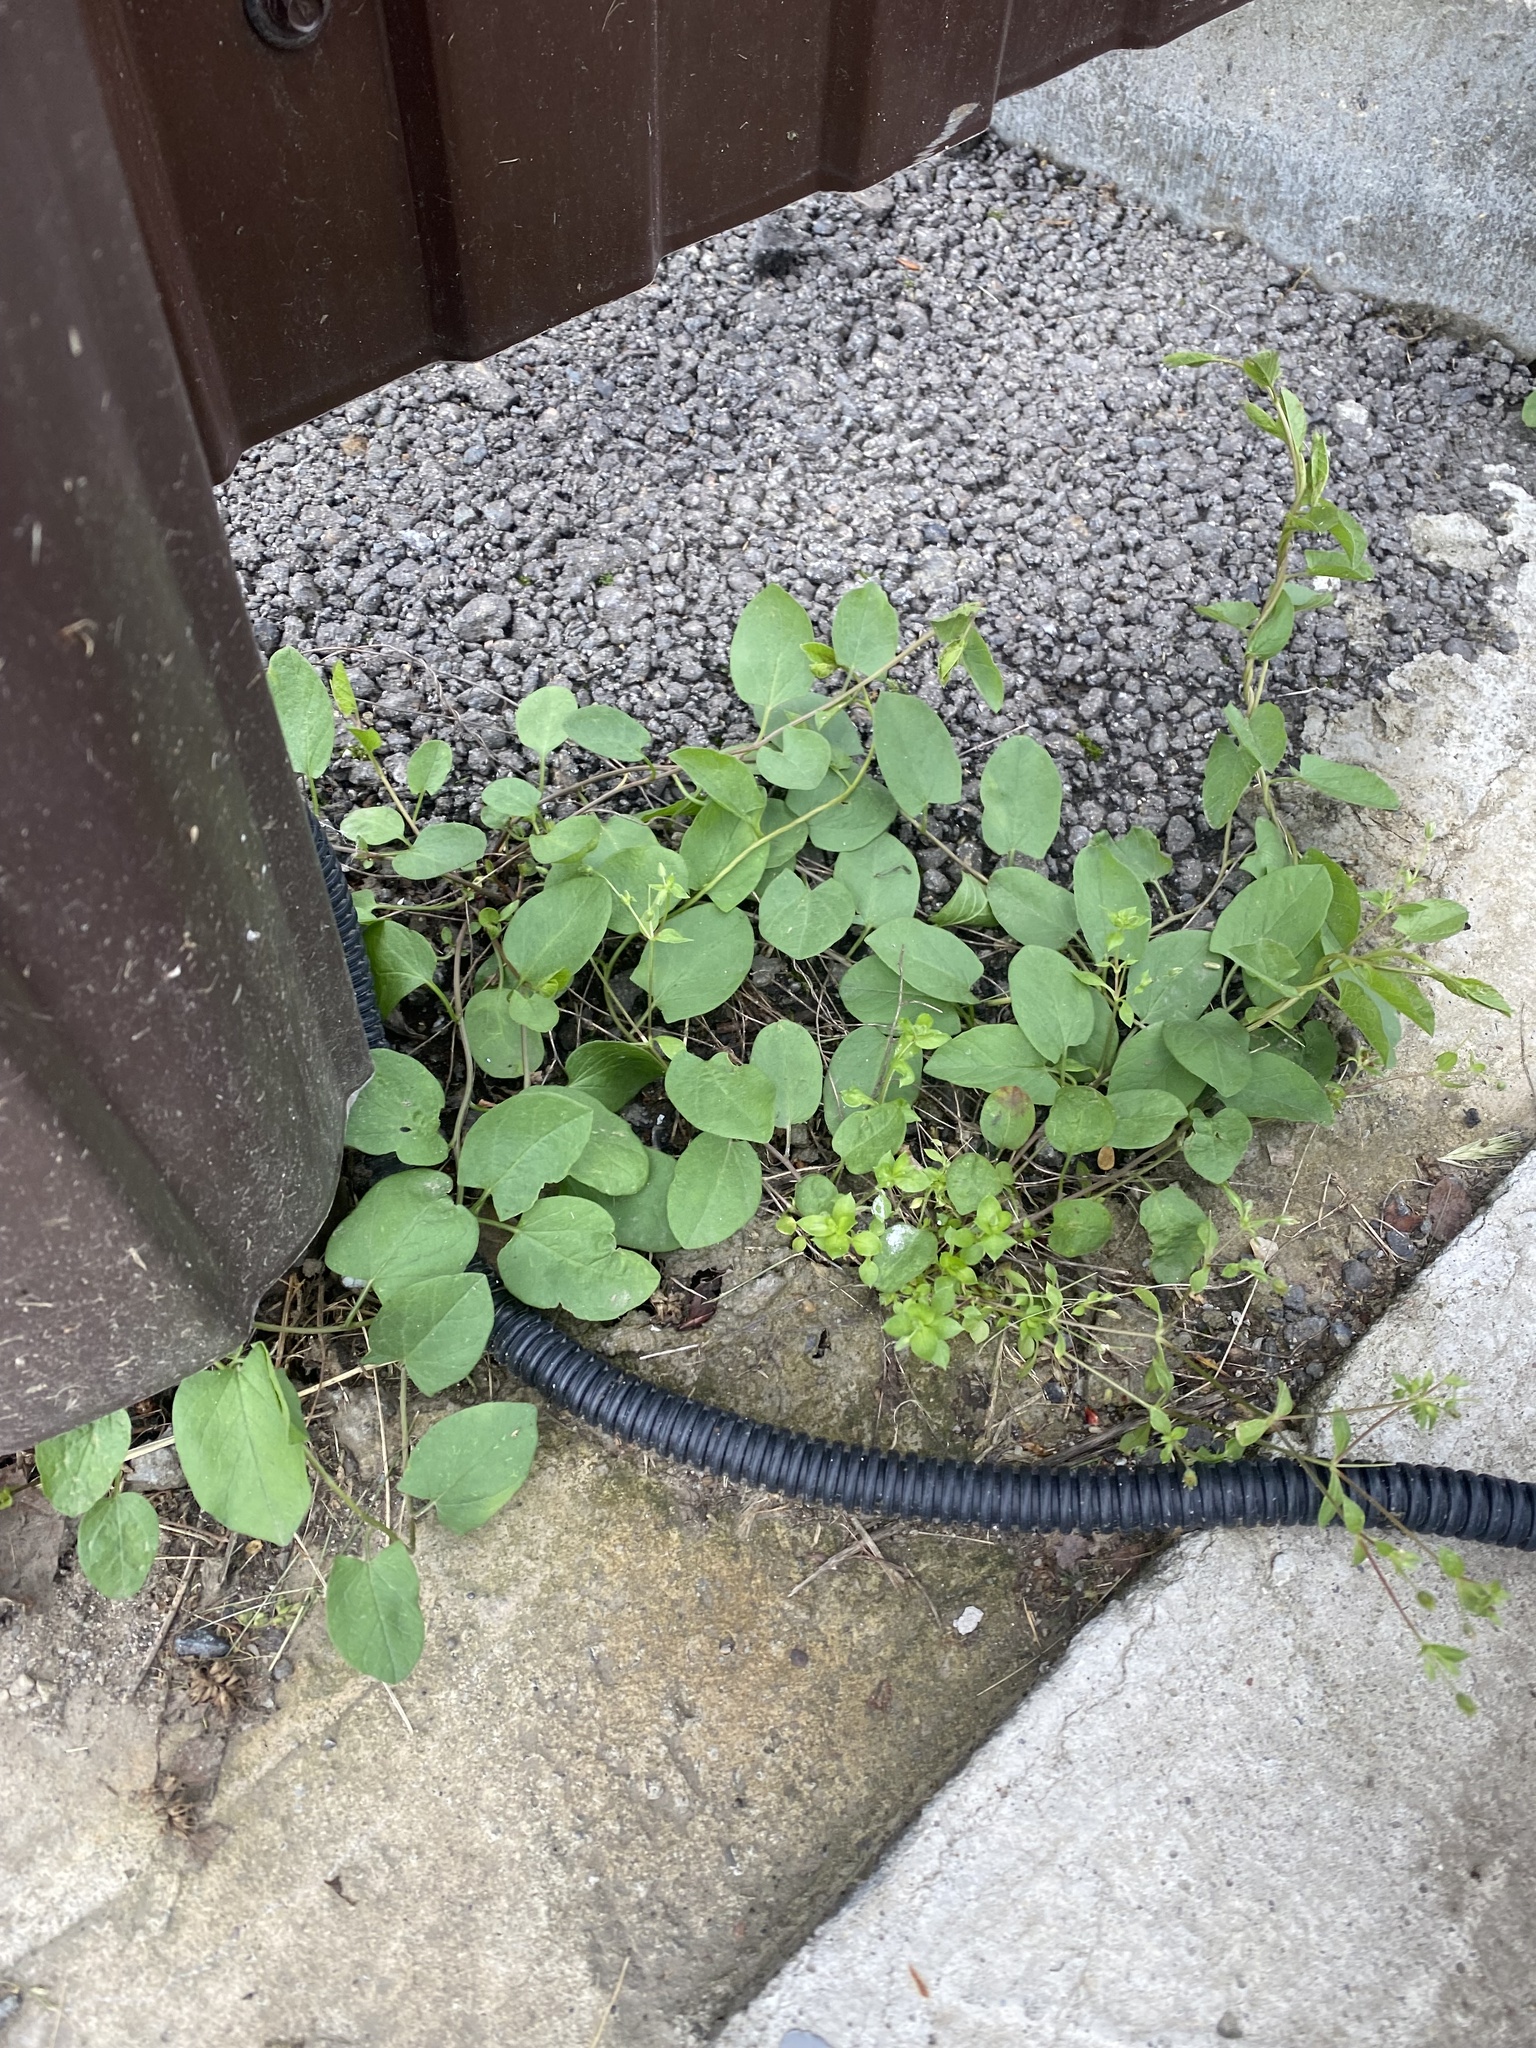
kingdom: Plantae
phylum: Tracheophyta
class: Magnoliopsida
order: Solanales
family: Convolvulaceae
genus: Convolvulus
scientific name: Convolvulus arvensis
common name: Field bindweed
